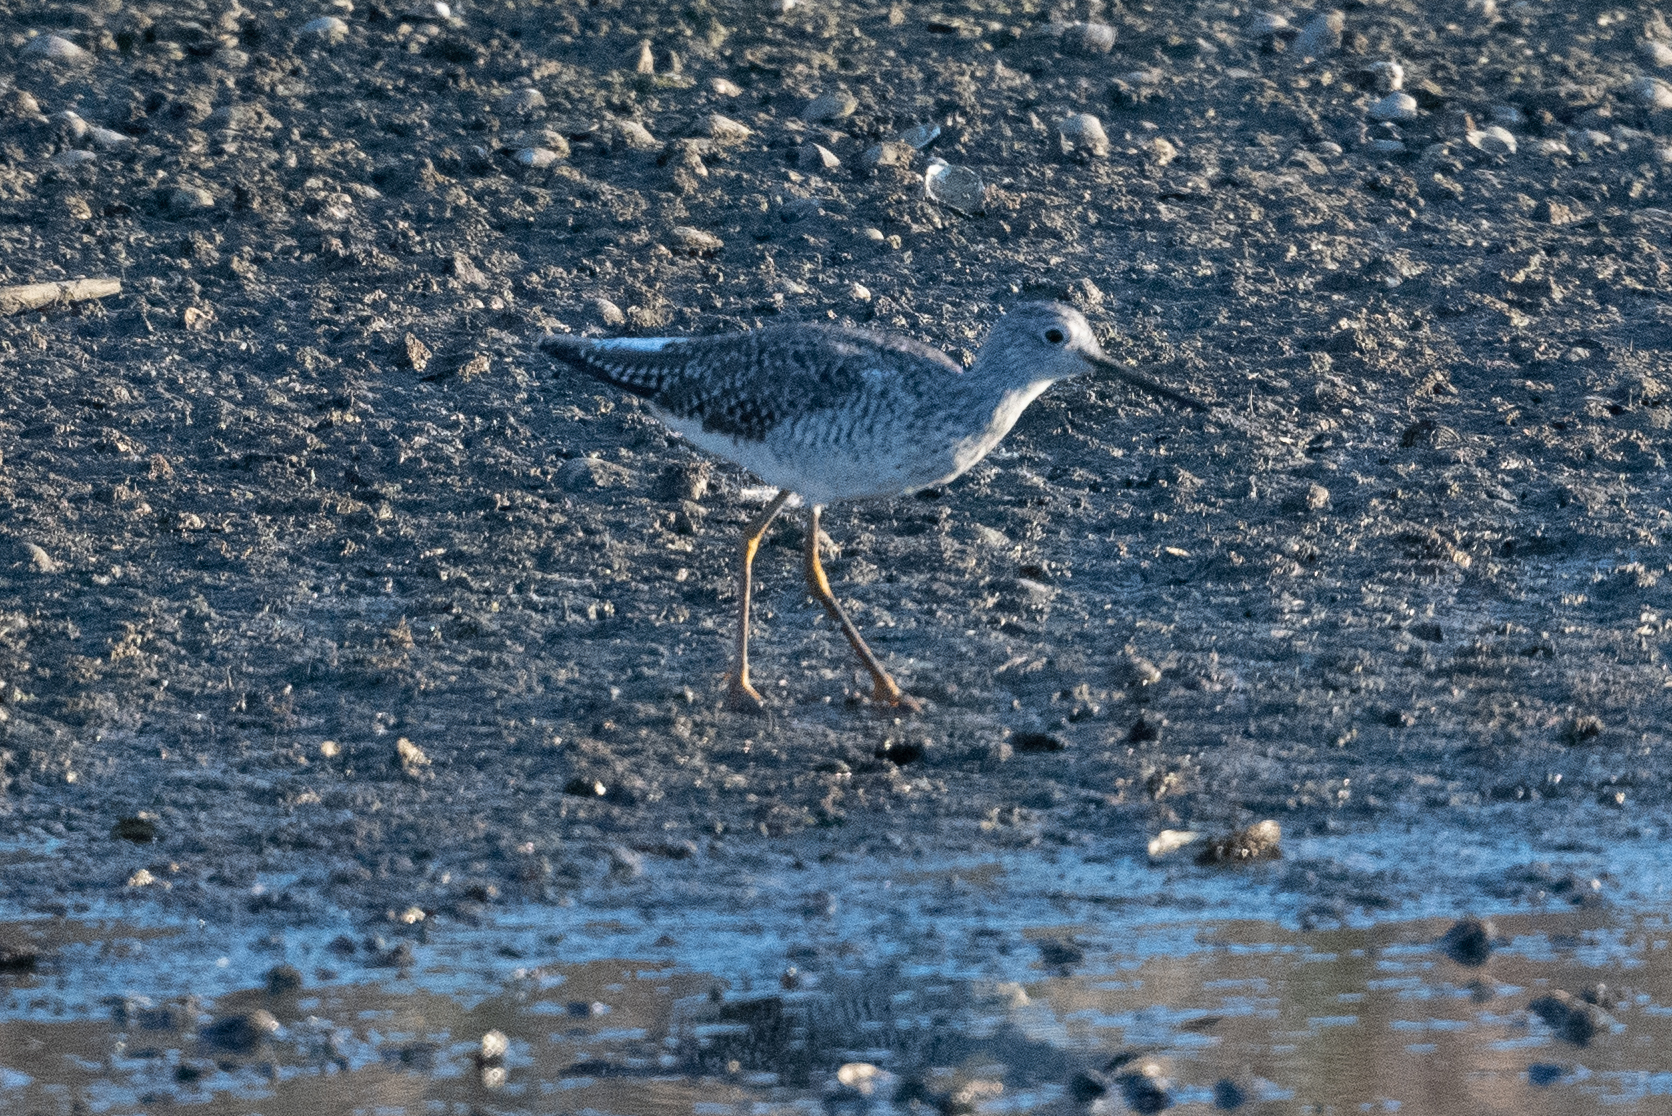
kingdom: Animalia
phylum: Chordata
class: Aves
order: Charadriiformes
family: Scolopacidae
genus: Tringa
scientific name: Tringa melanoleuca
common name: Greater yellowlegs
